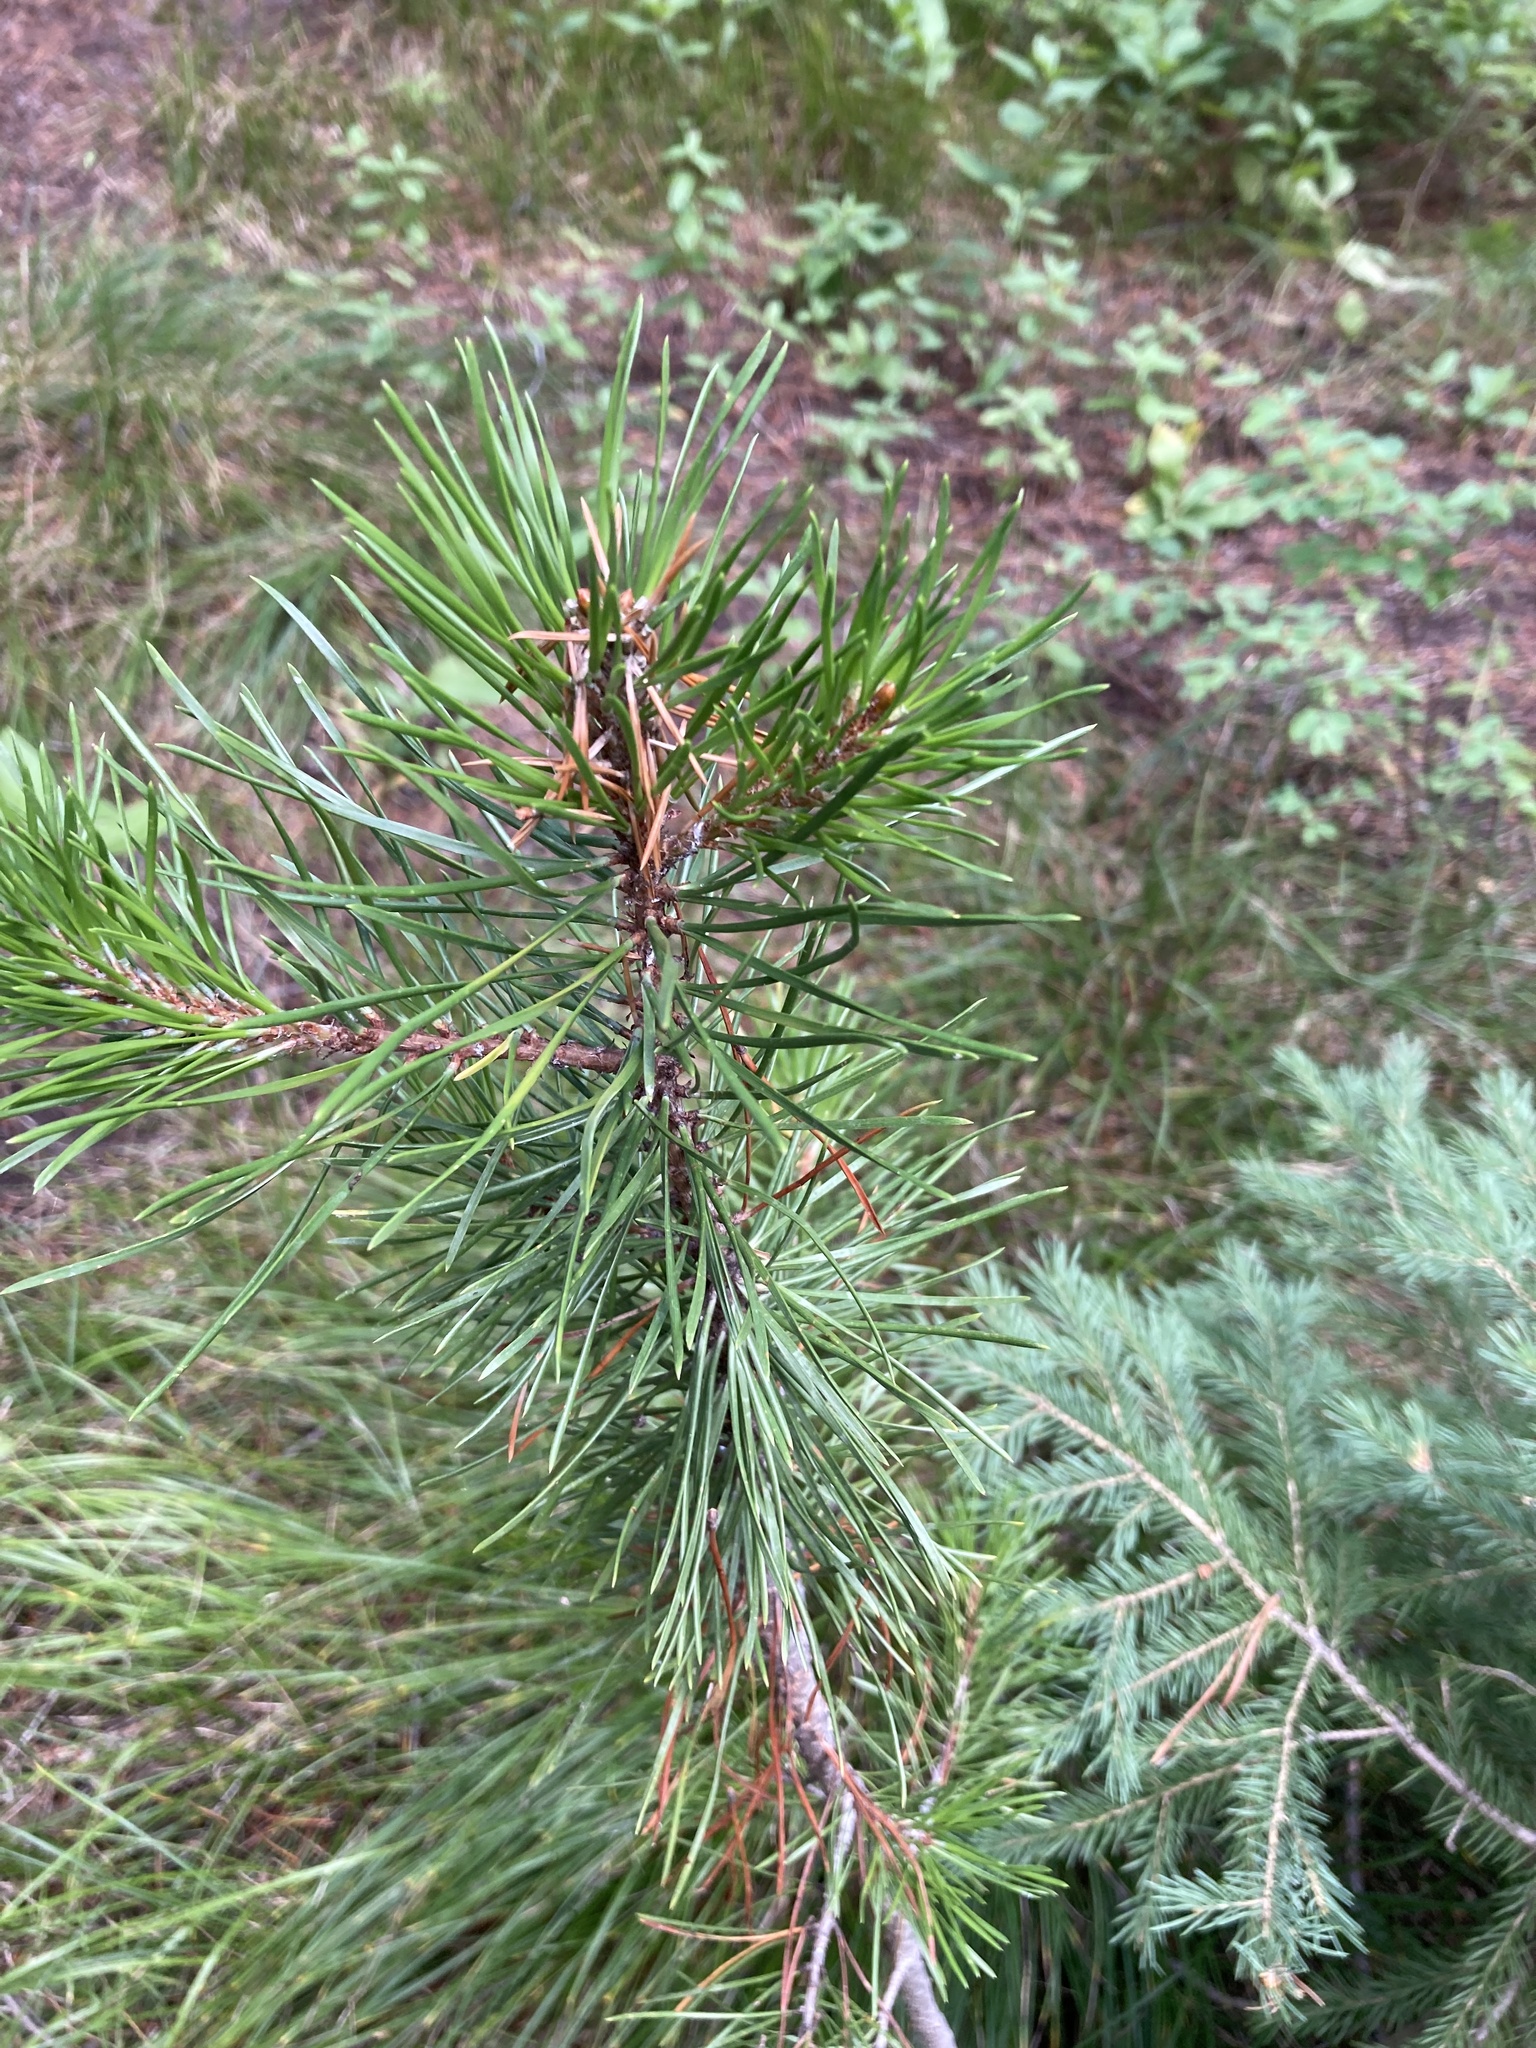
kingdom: Plantae
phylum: Tracheophyta
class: Pinopsida
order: Pinales
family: Pinaceae
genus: Pinus
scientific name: Pinus contorta
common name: Lodgepole pine
